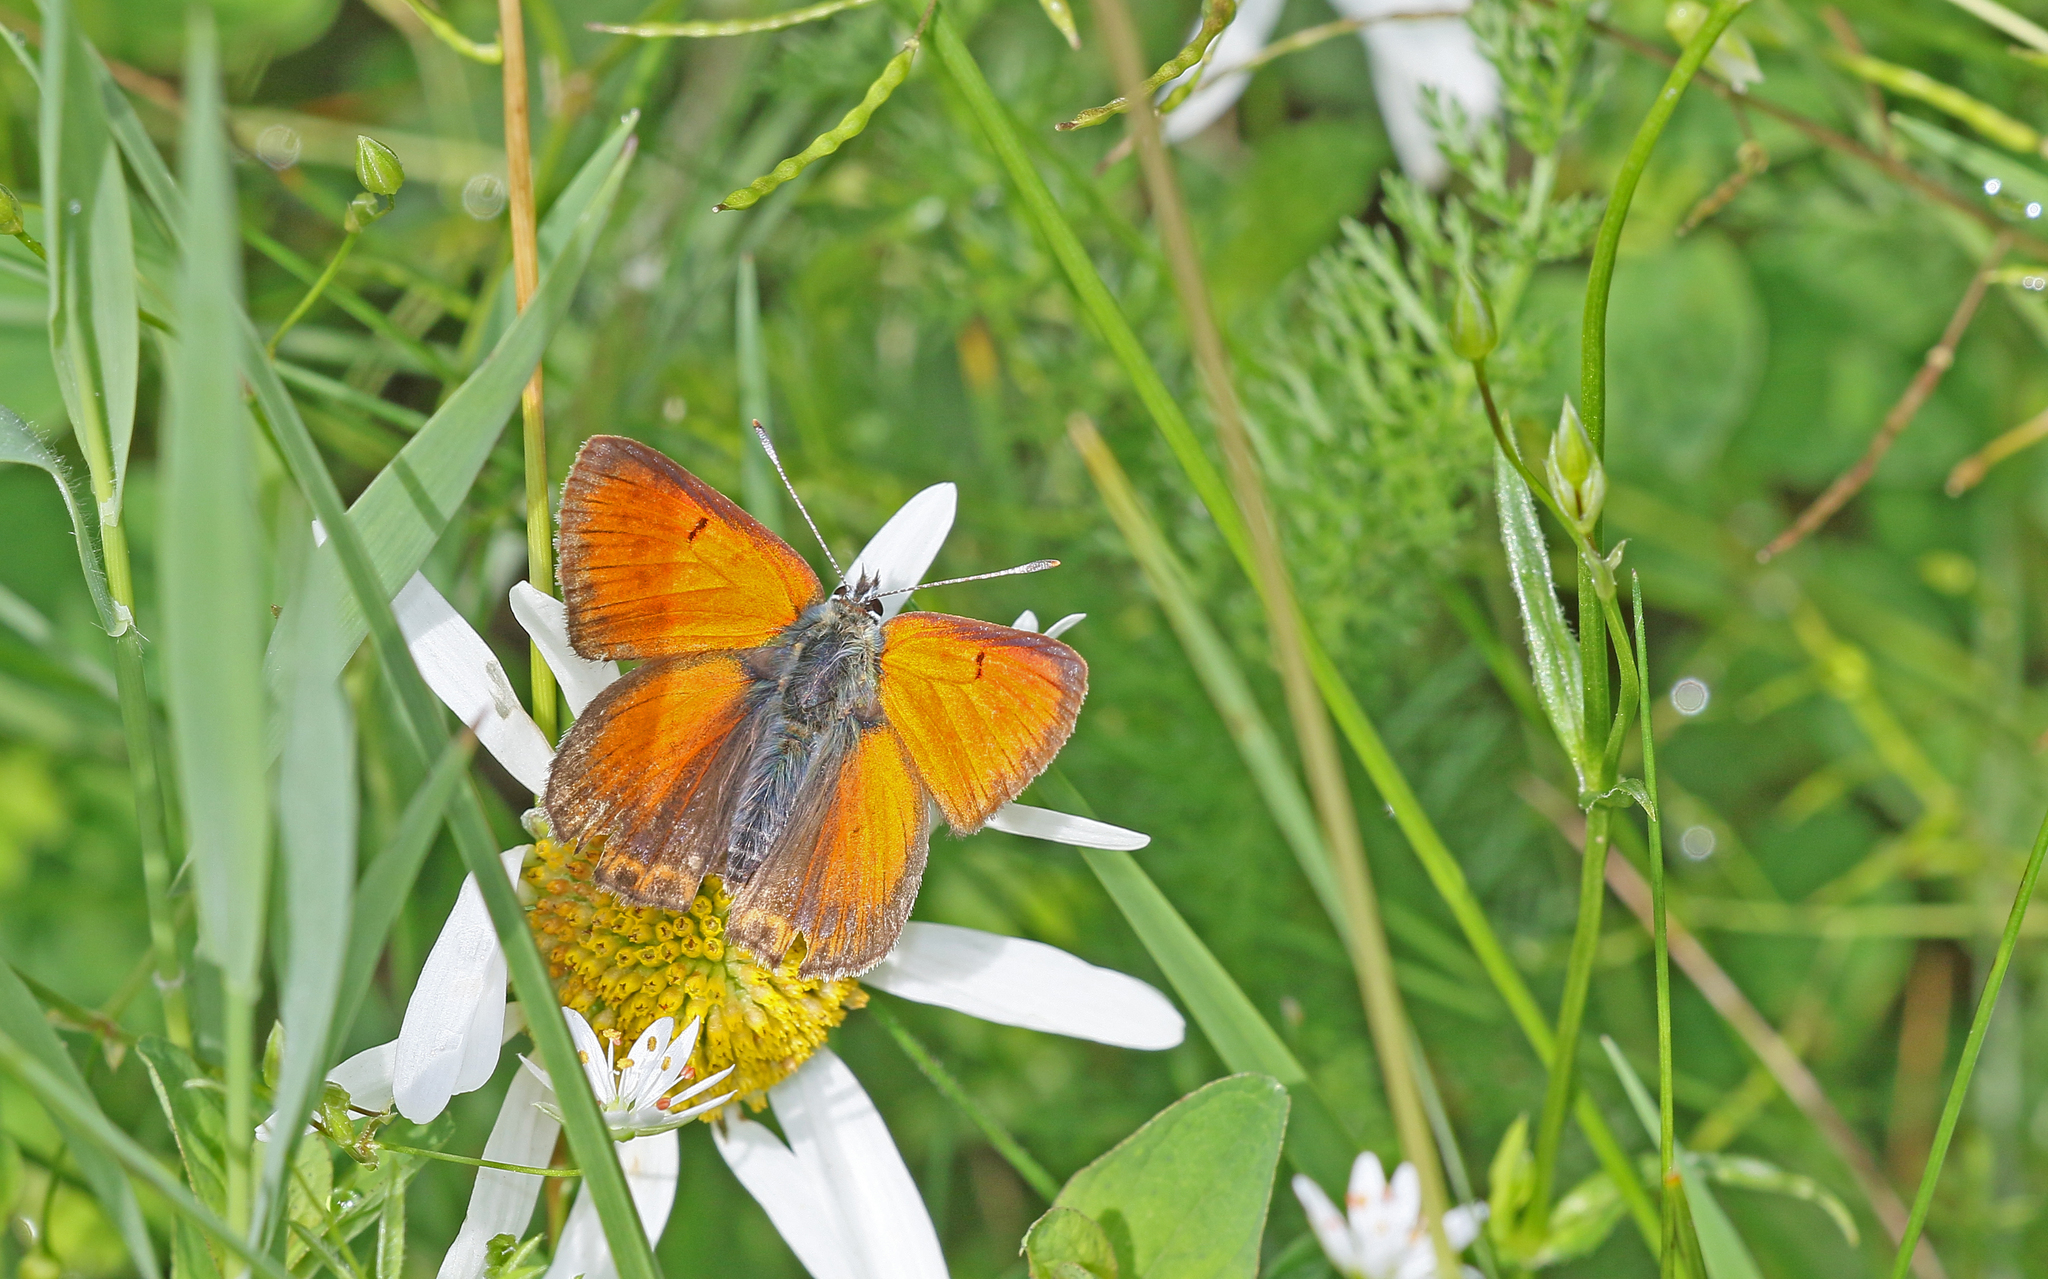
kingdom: Animalia
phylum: Arthropoda
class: Insecta
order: Lepidoptera
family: Lycaenidae
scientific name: Lycaenidae
